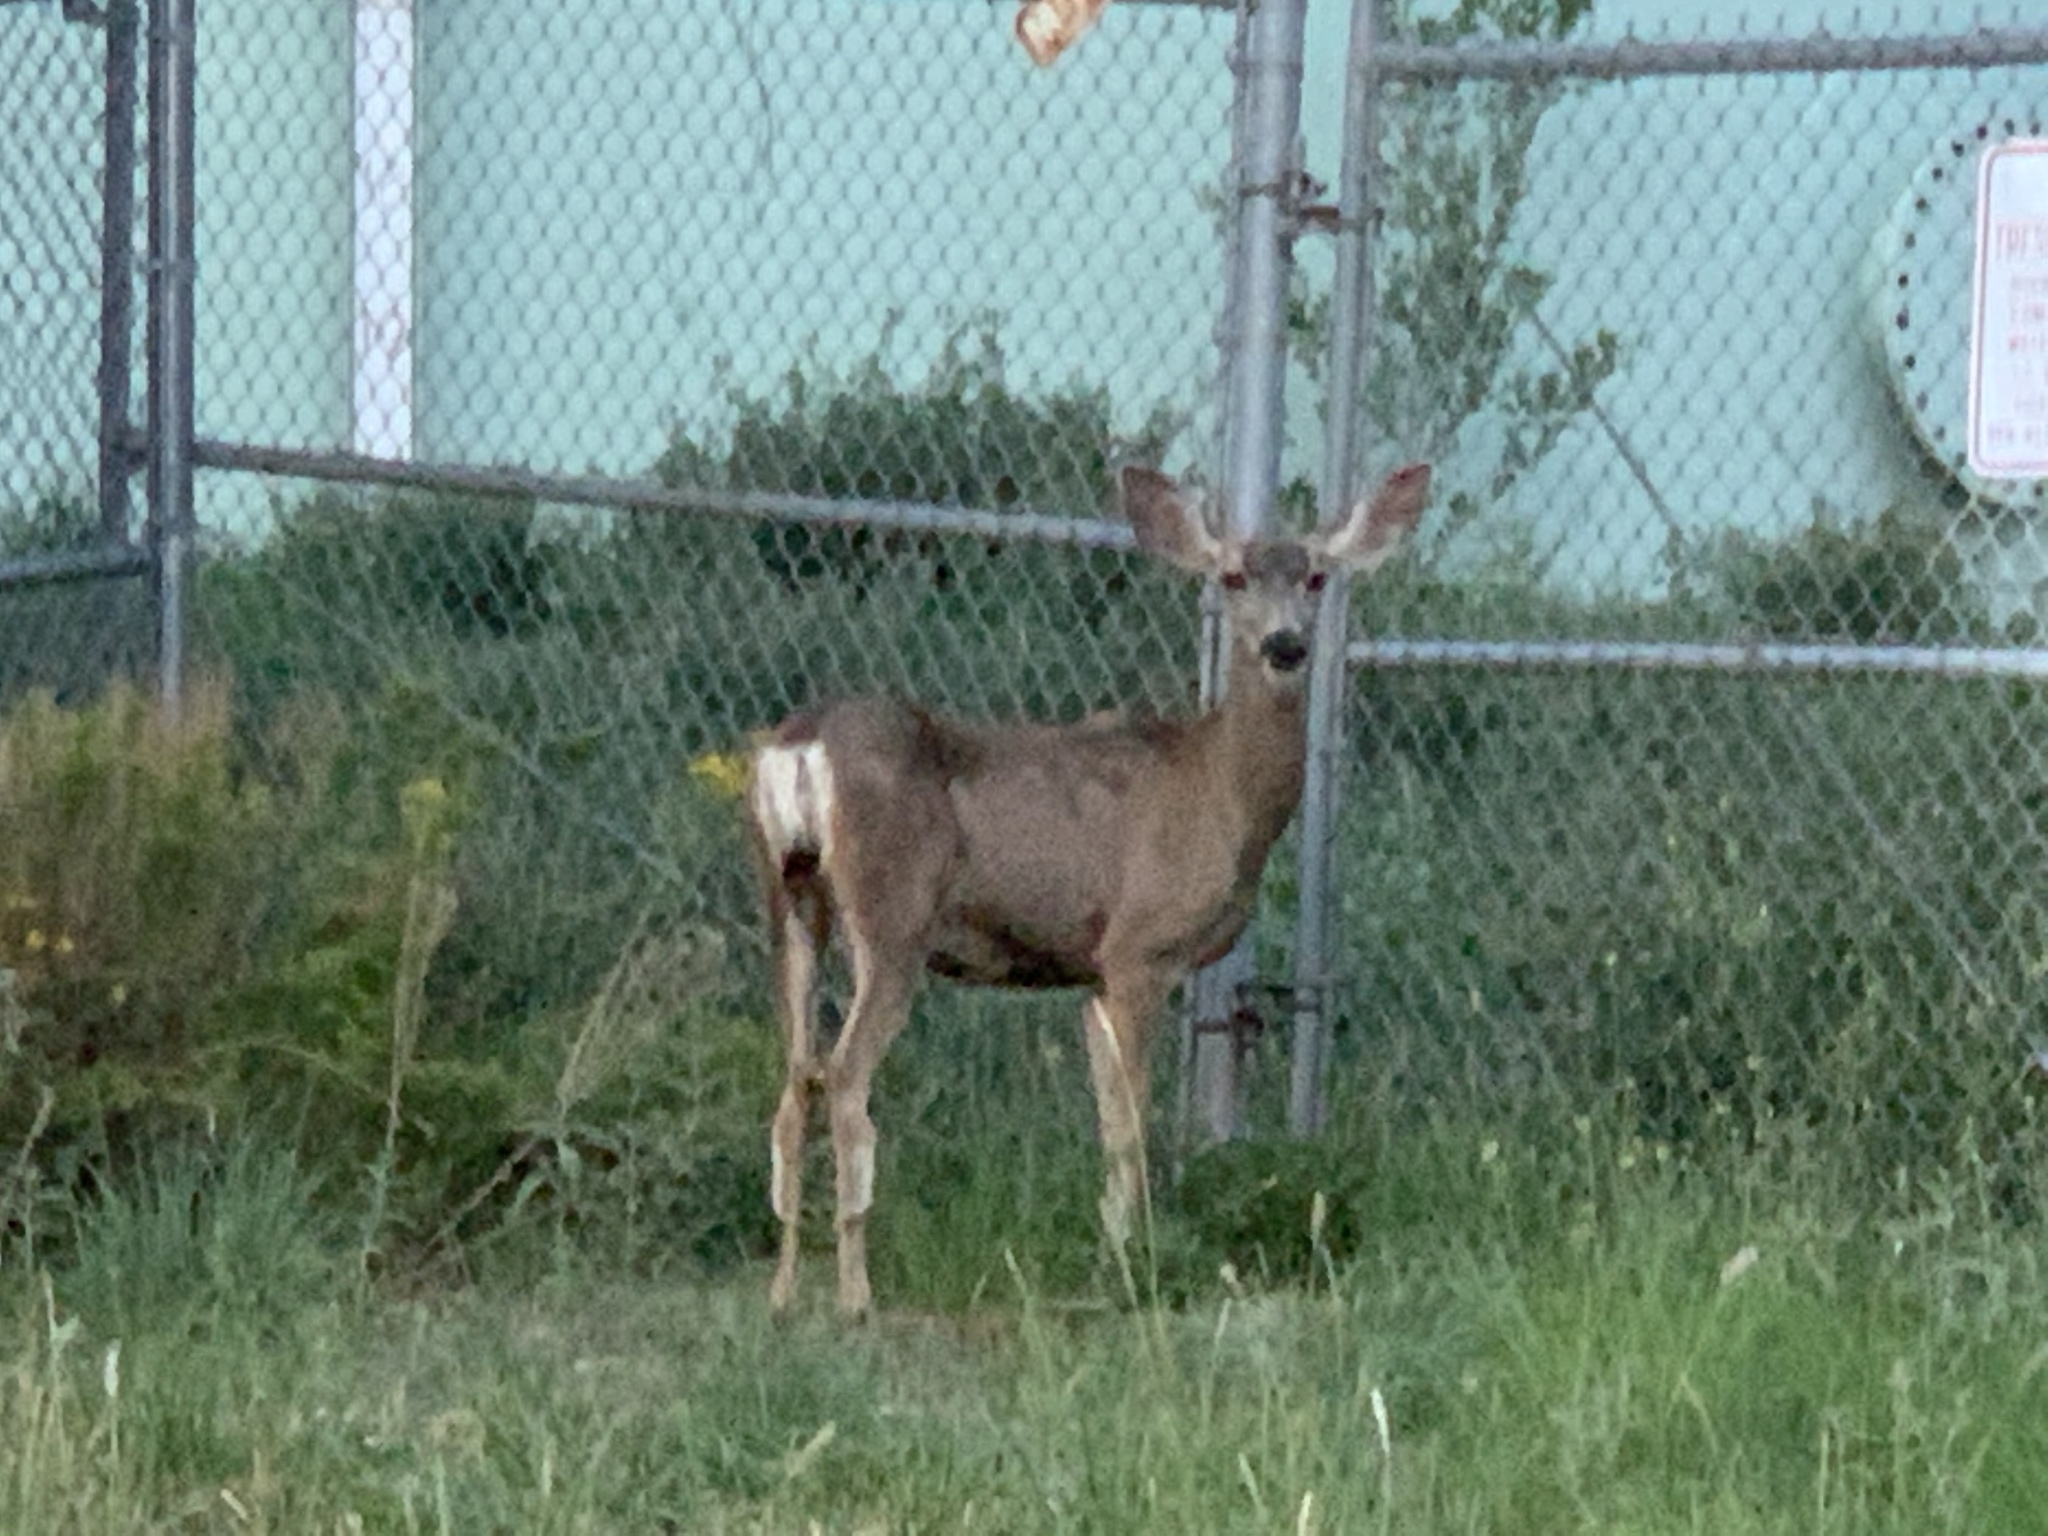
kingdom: Animalia
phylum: Chordata
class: Mammalia
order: Artiodactyla
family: Cervidae
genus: Odocoileus
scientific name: Odocoileus hemionus
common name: Mule deer
